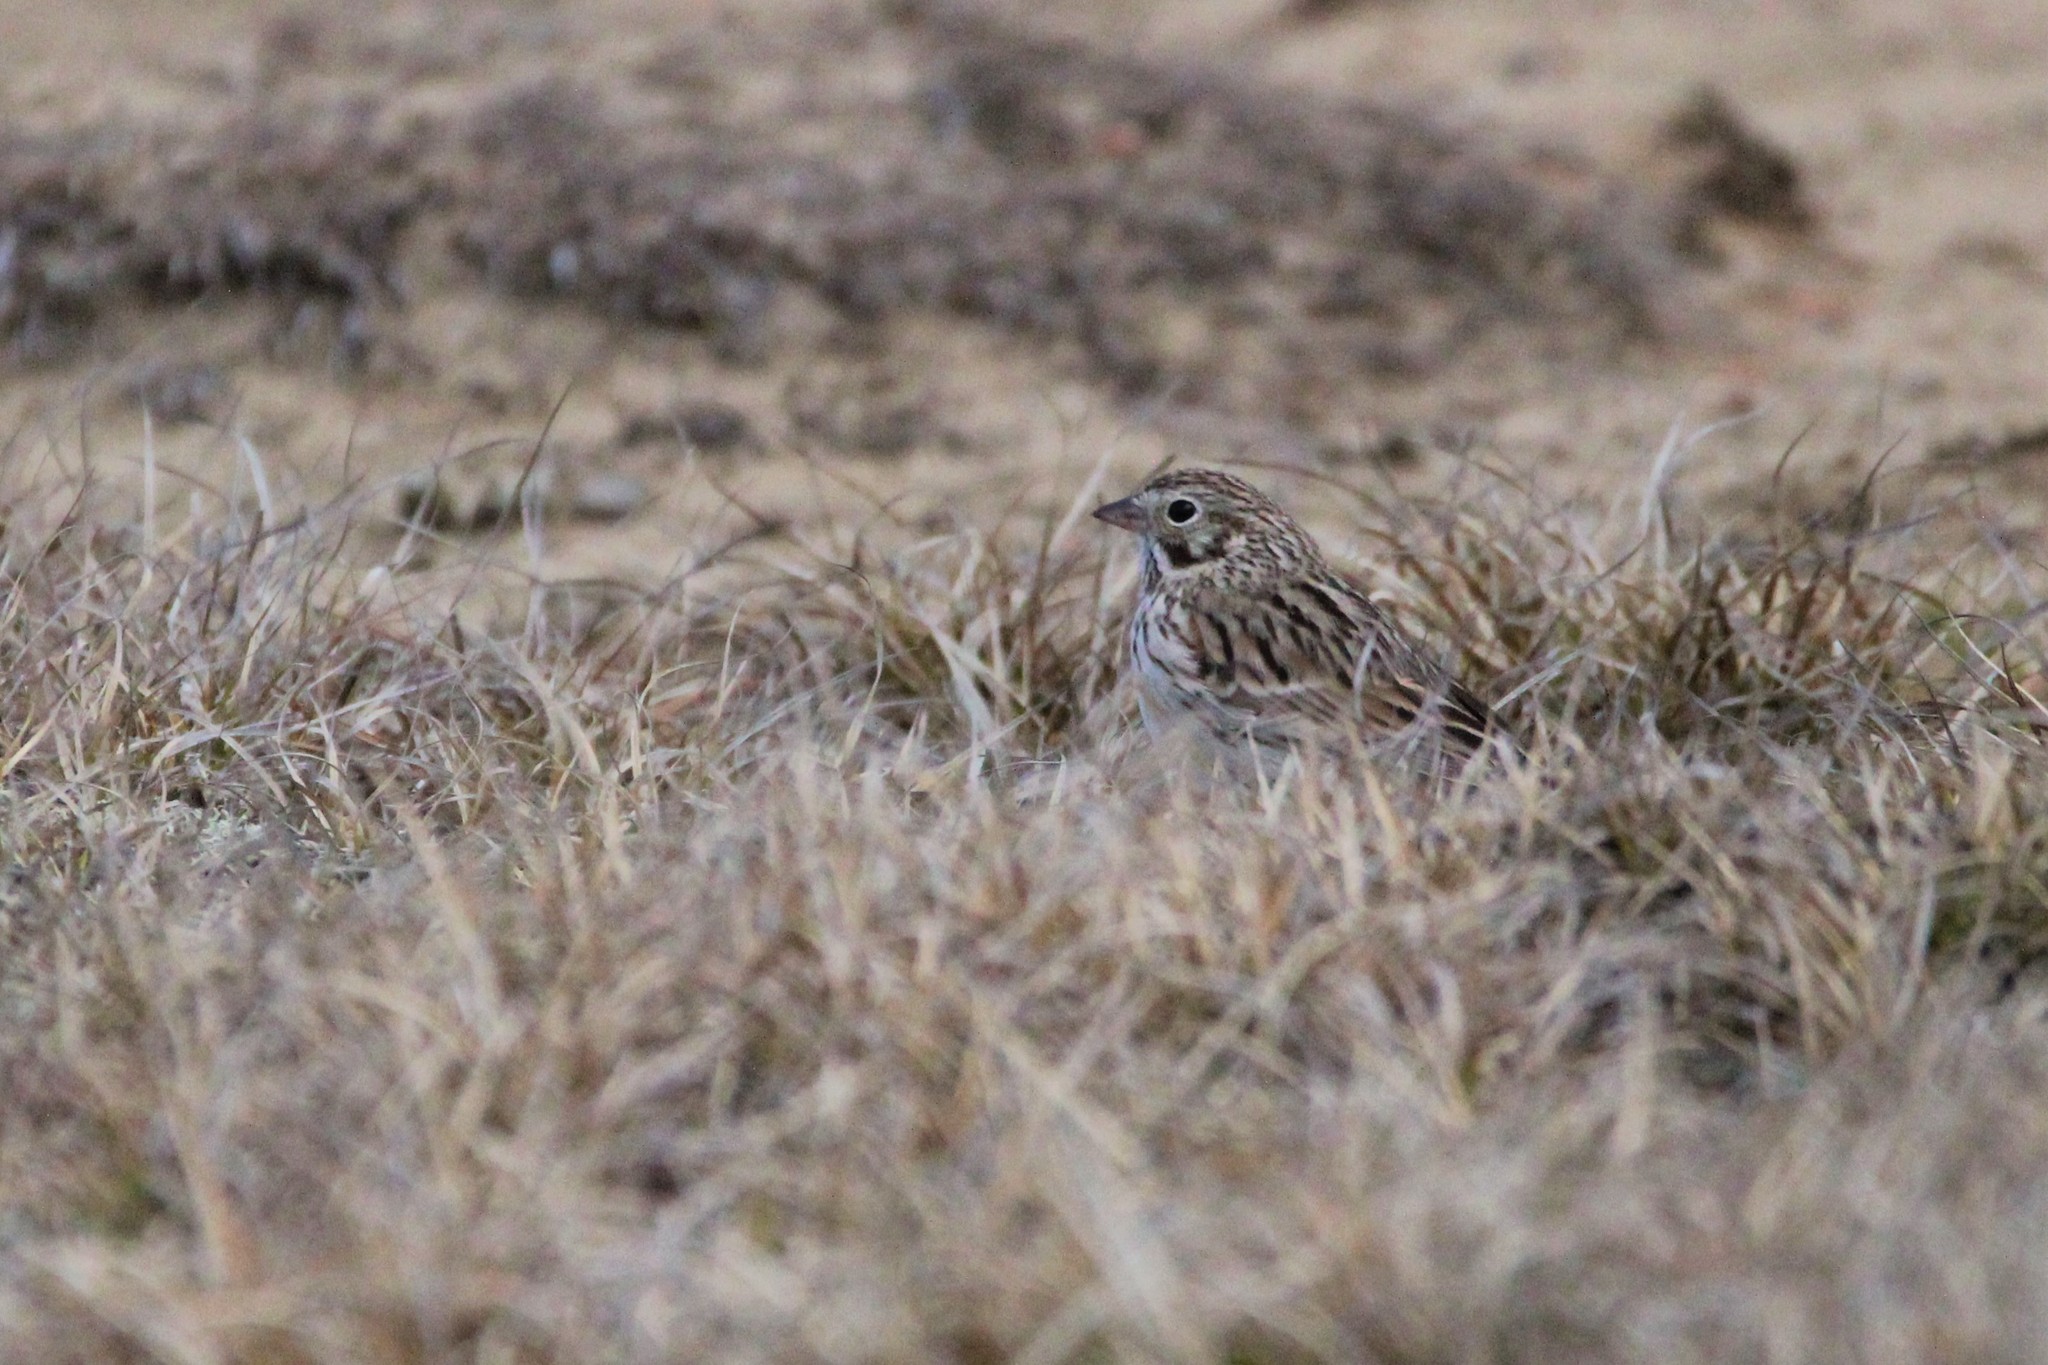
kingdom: Animalia
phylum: Chordata
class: Aves
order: Passeriformes
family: Passerellidae
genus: Pooecetes
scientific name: Pooecetes gramineus
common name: Vesper sparrow
